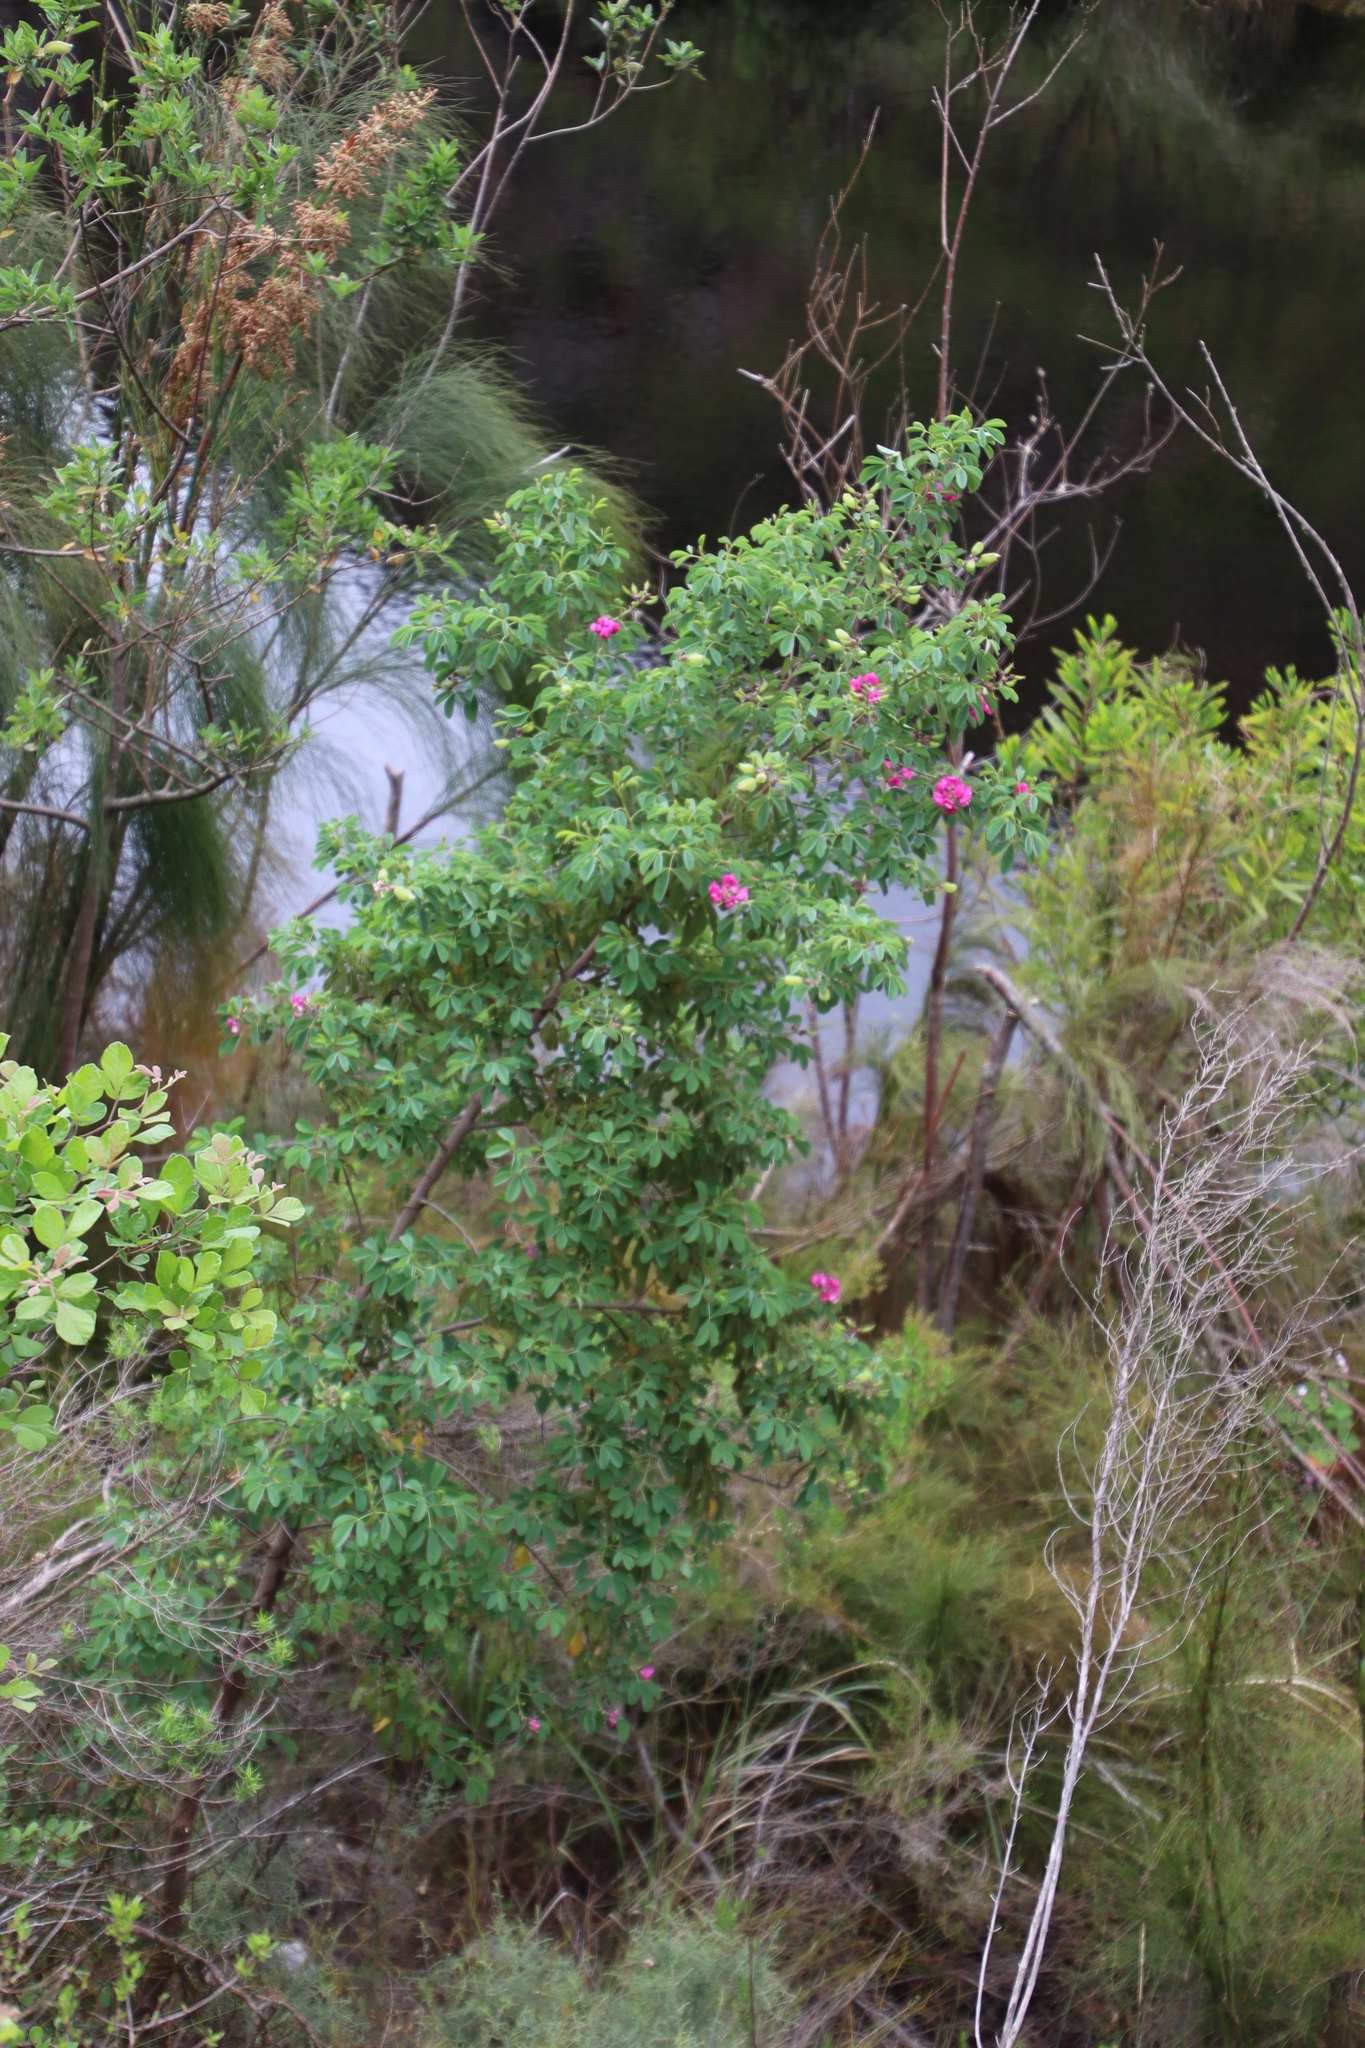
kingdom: Plantae
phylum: Tracheophyta
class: Magnoliopsida
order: Fabales
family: Fabaceae
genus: Hypocalyptus
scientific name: Hypocalyptus sophoroides
